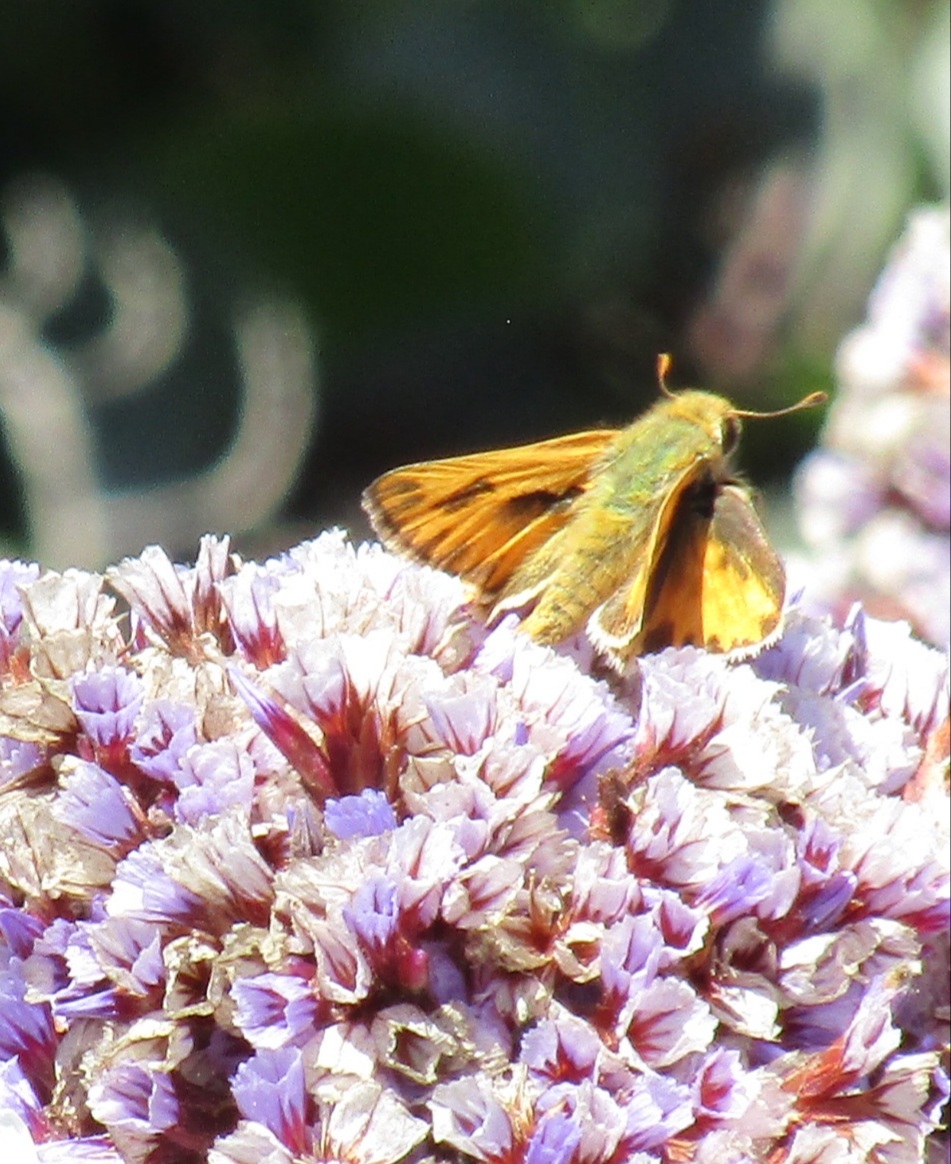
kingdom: Animalia
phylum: Arthropoda
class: Insecta
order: Lepidoptera
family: Hesperiidae
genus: Hylephila
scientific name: Hylephila phyleus
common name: Fiery skipper
